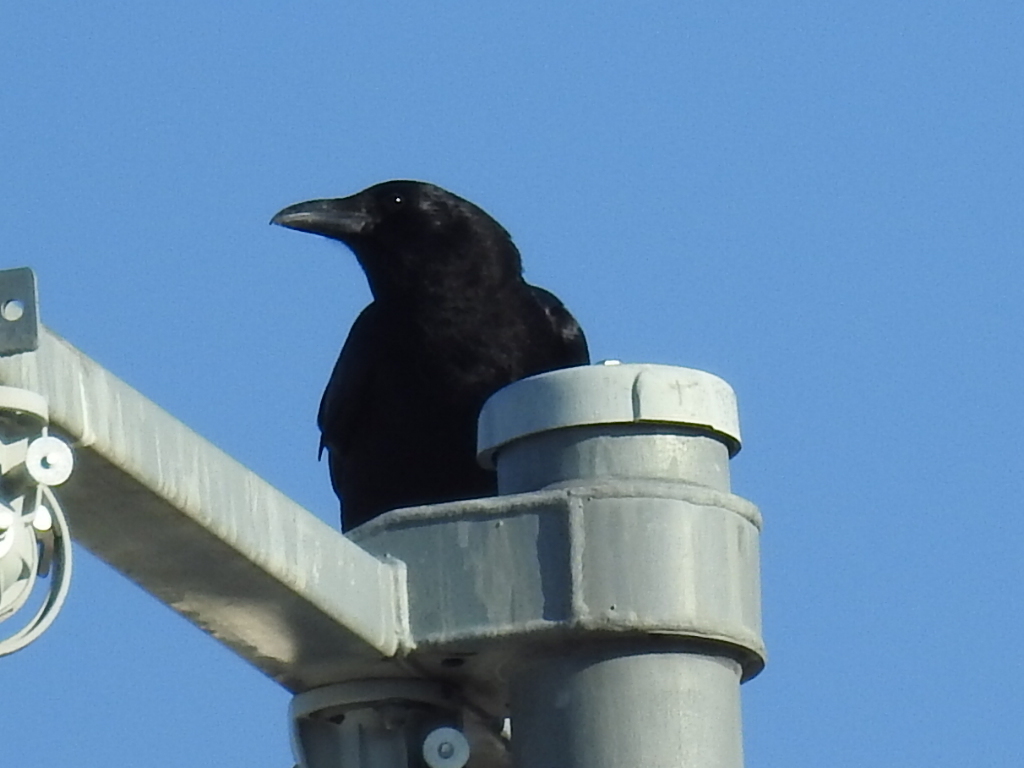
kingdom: Animalia
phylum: Chordata
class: Aves
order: Passeriformes
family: Corvidae
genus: Corvus
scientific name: Corvus brachyrhynchos
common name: American crow
